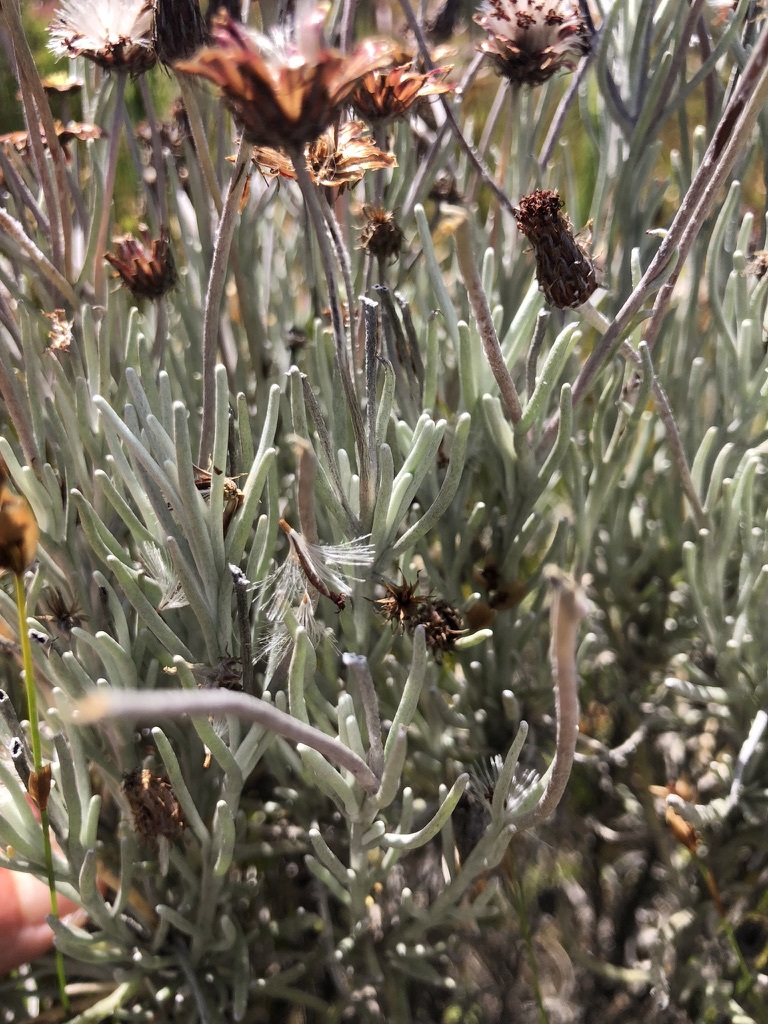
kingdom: Plantae
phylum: Tracheophyta
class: Magnoliopsida
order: Asterales
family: Asteraceae
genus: Syncarpha
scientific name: Syncarpha gnaphaloides
